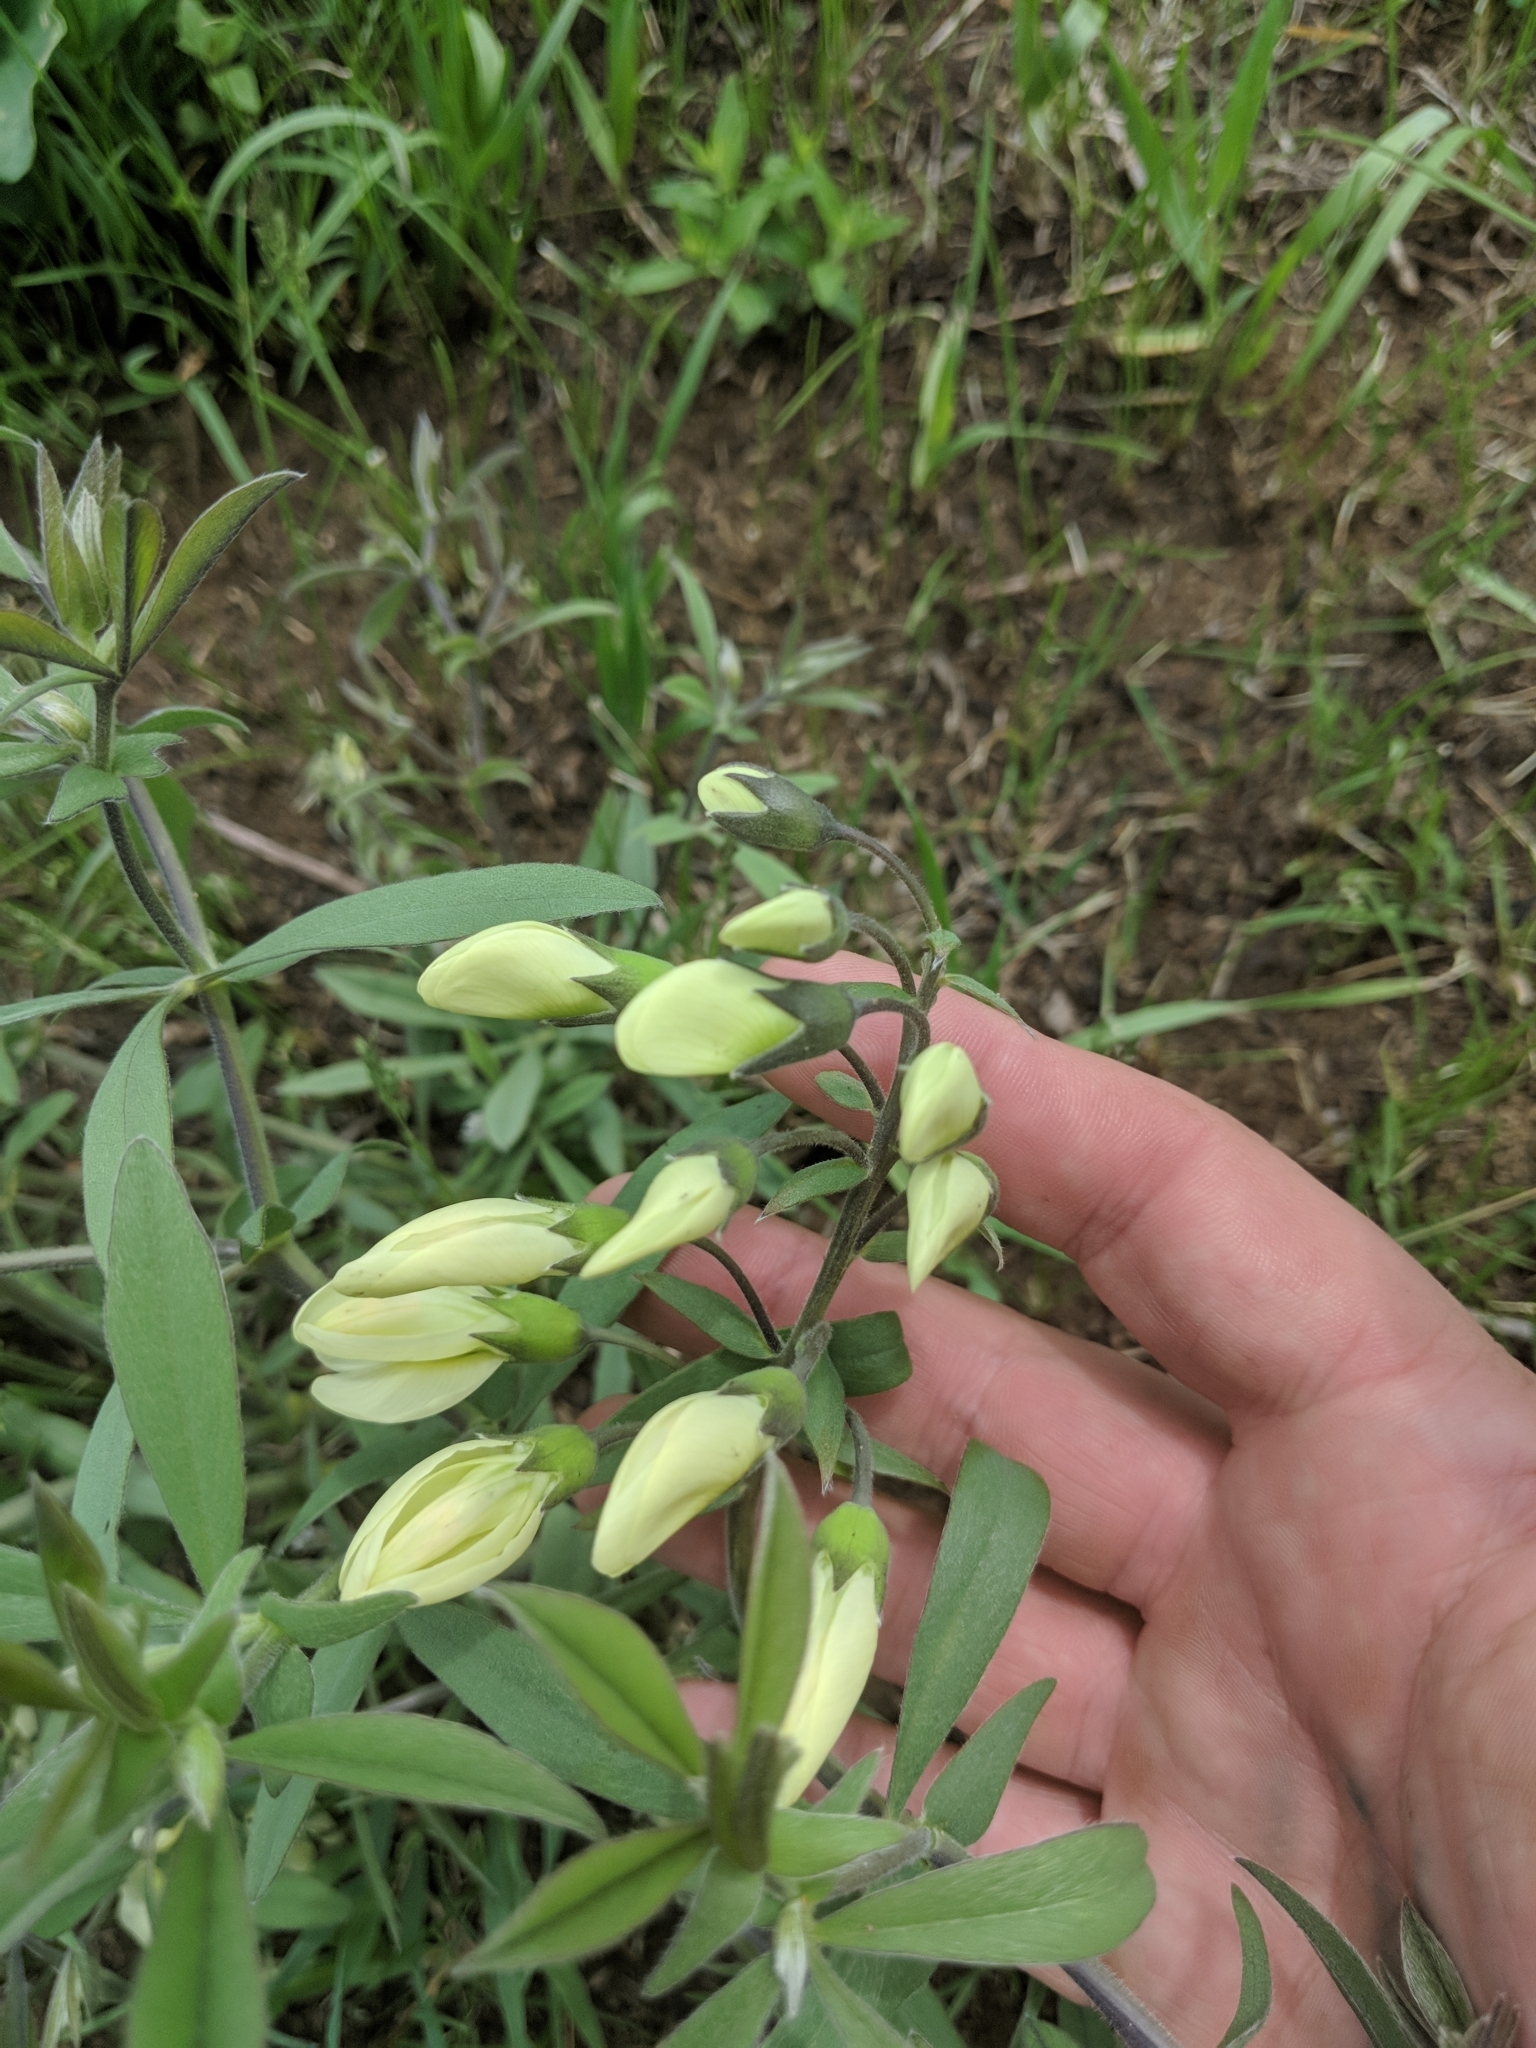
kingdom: Plantae
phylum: Tracheophyta
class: Magnoliopsida
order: Fabales
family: Fabaceae
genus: Baptisia
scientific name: Baptisia bracteata
